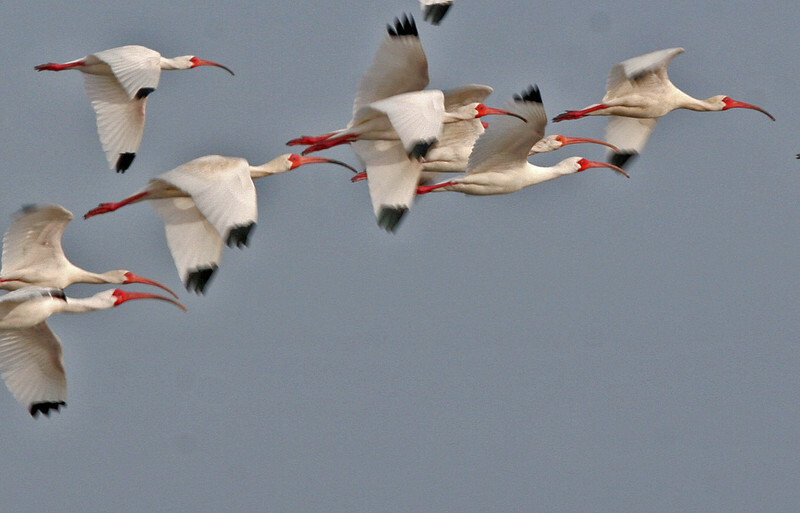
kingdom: Animalia
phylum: Chordata
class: Aves
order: Pelecaniformes
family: Threskiornithidae
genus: Eudocimus
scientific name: Eudocimus albus
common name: White ibis
